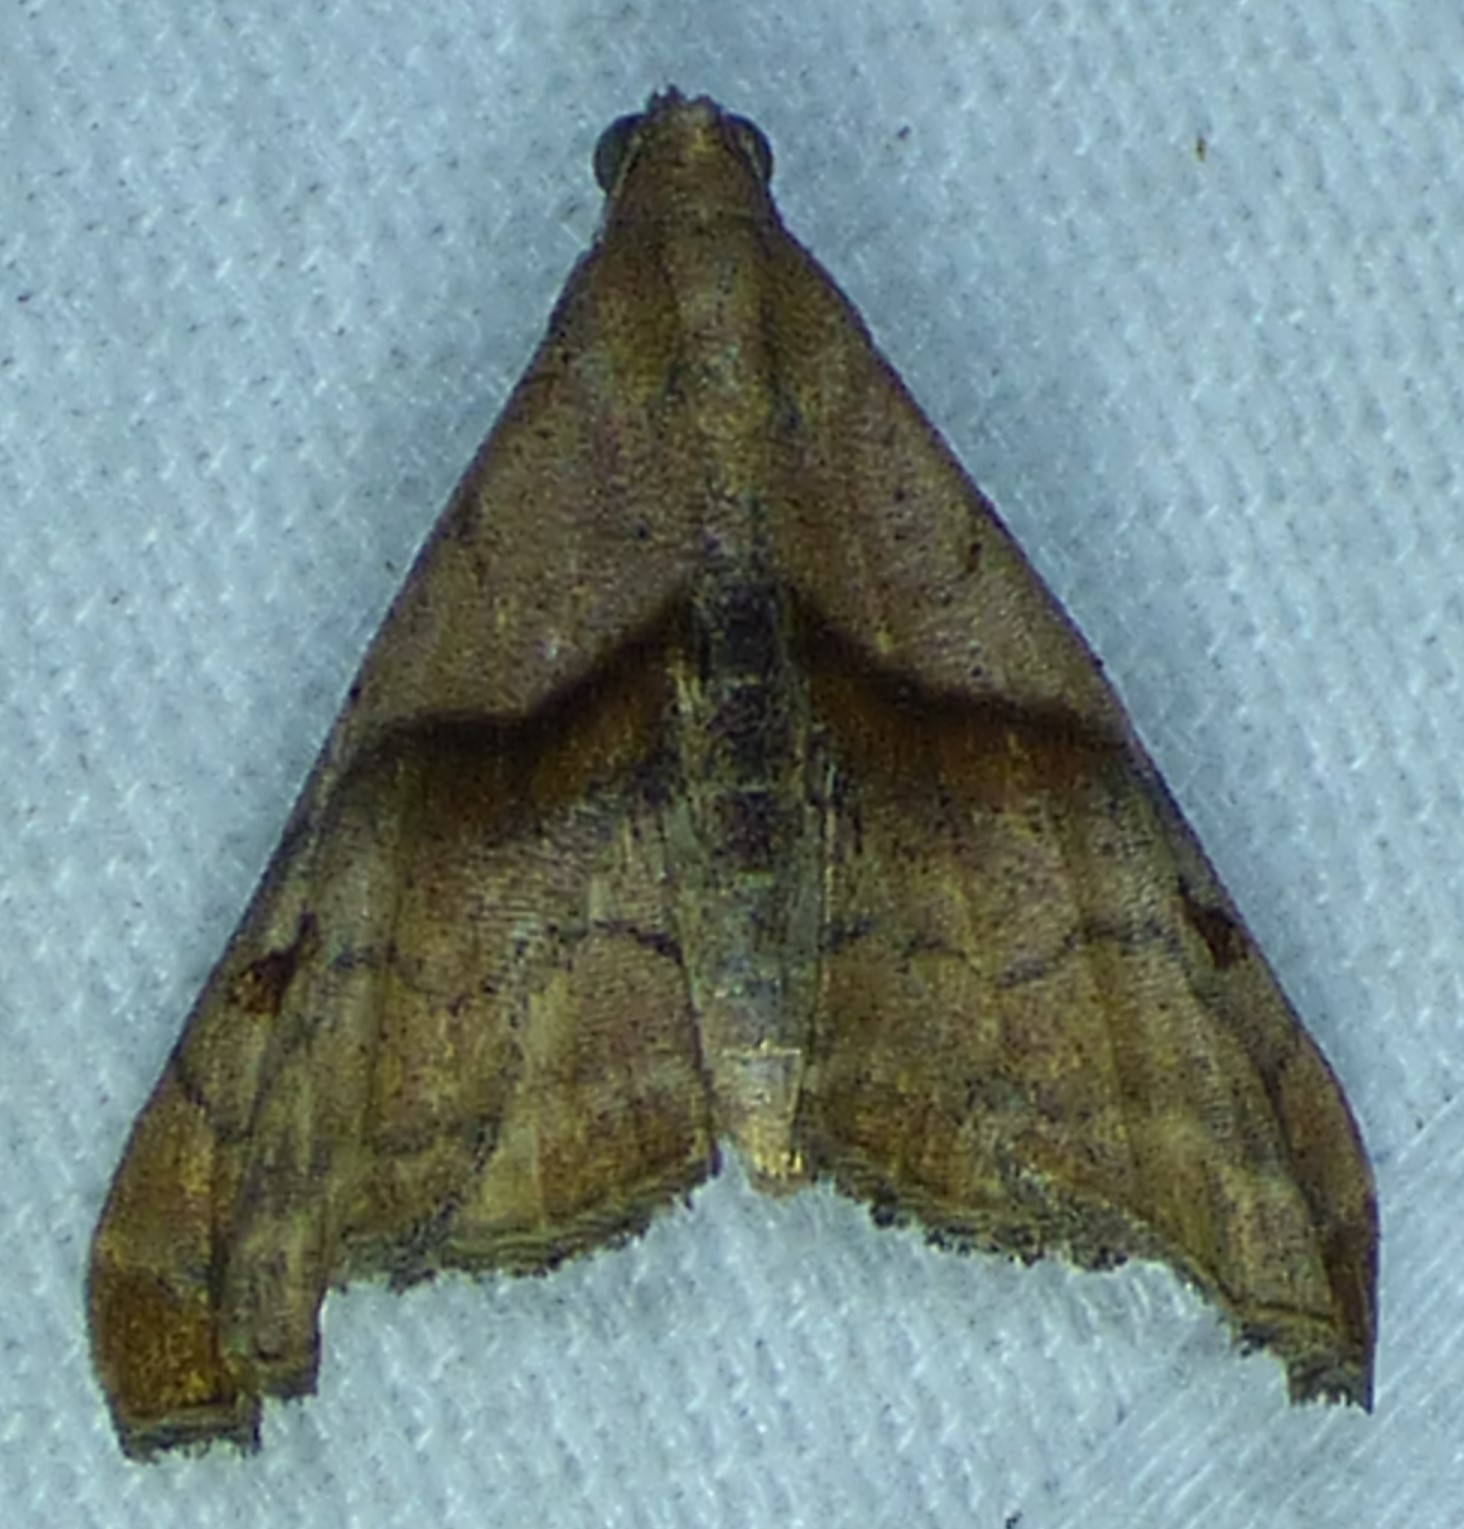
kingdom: Animalia
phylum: Arthropoda
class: Insecta
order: Lepidoptera
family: Erebidae
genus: Palthis
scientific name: Palthis angulalis
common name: Dark-spotted palthis moth
